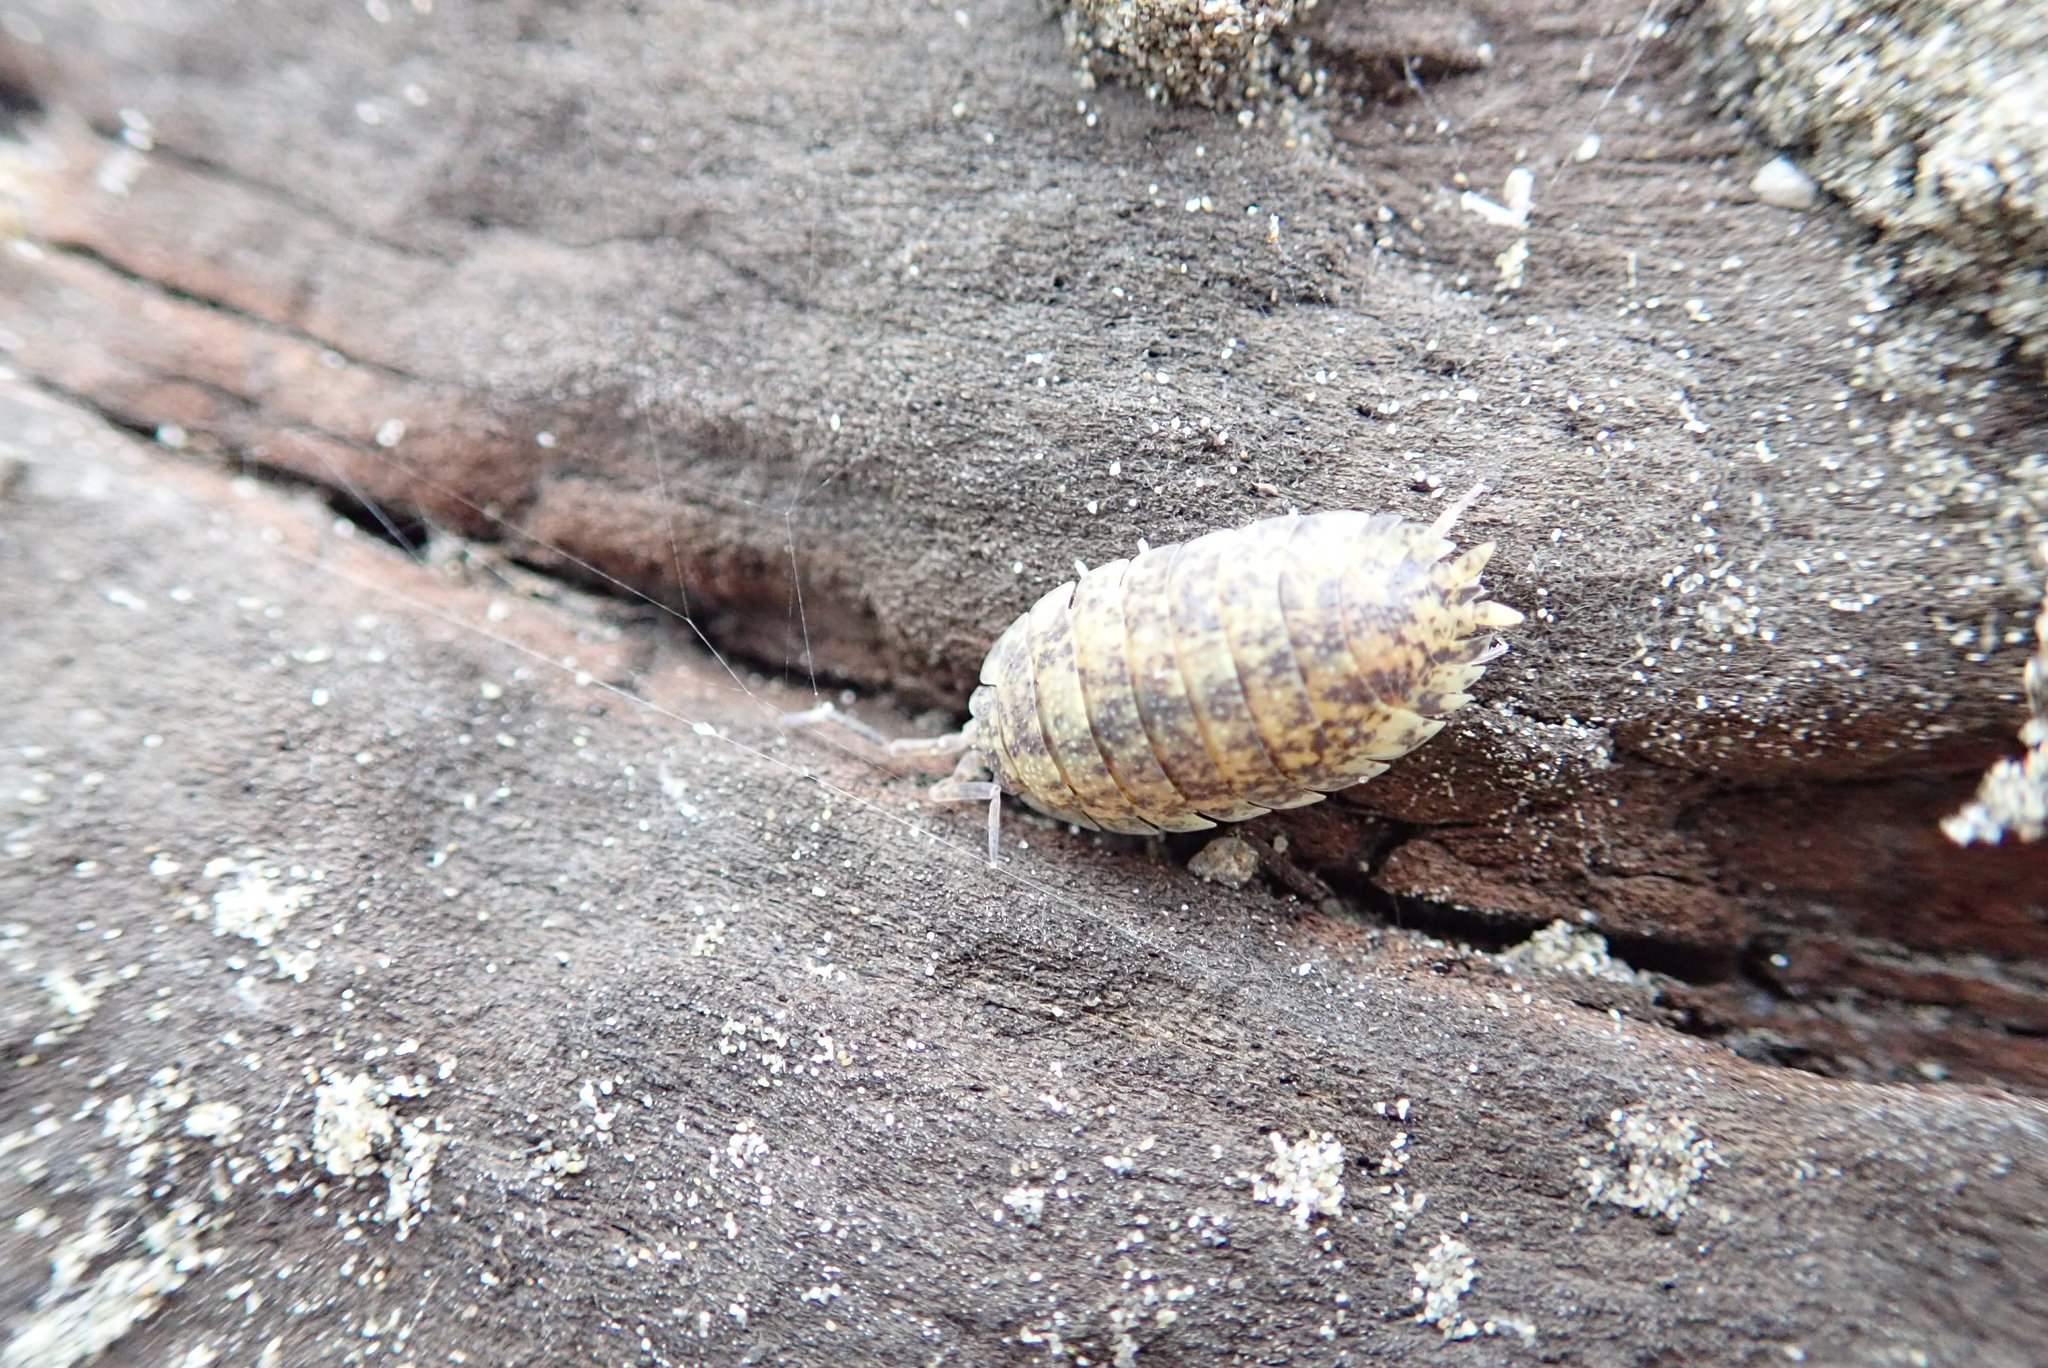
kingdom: Animalia
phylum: Arthropoda
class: Malacostraca
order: Isopoda
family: Porcellionidae
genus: Porcellio
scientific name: Porcellio scaber
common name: Common rough woodlouse
